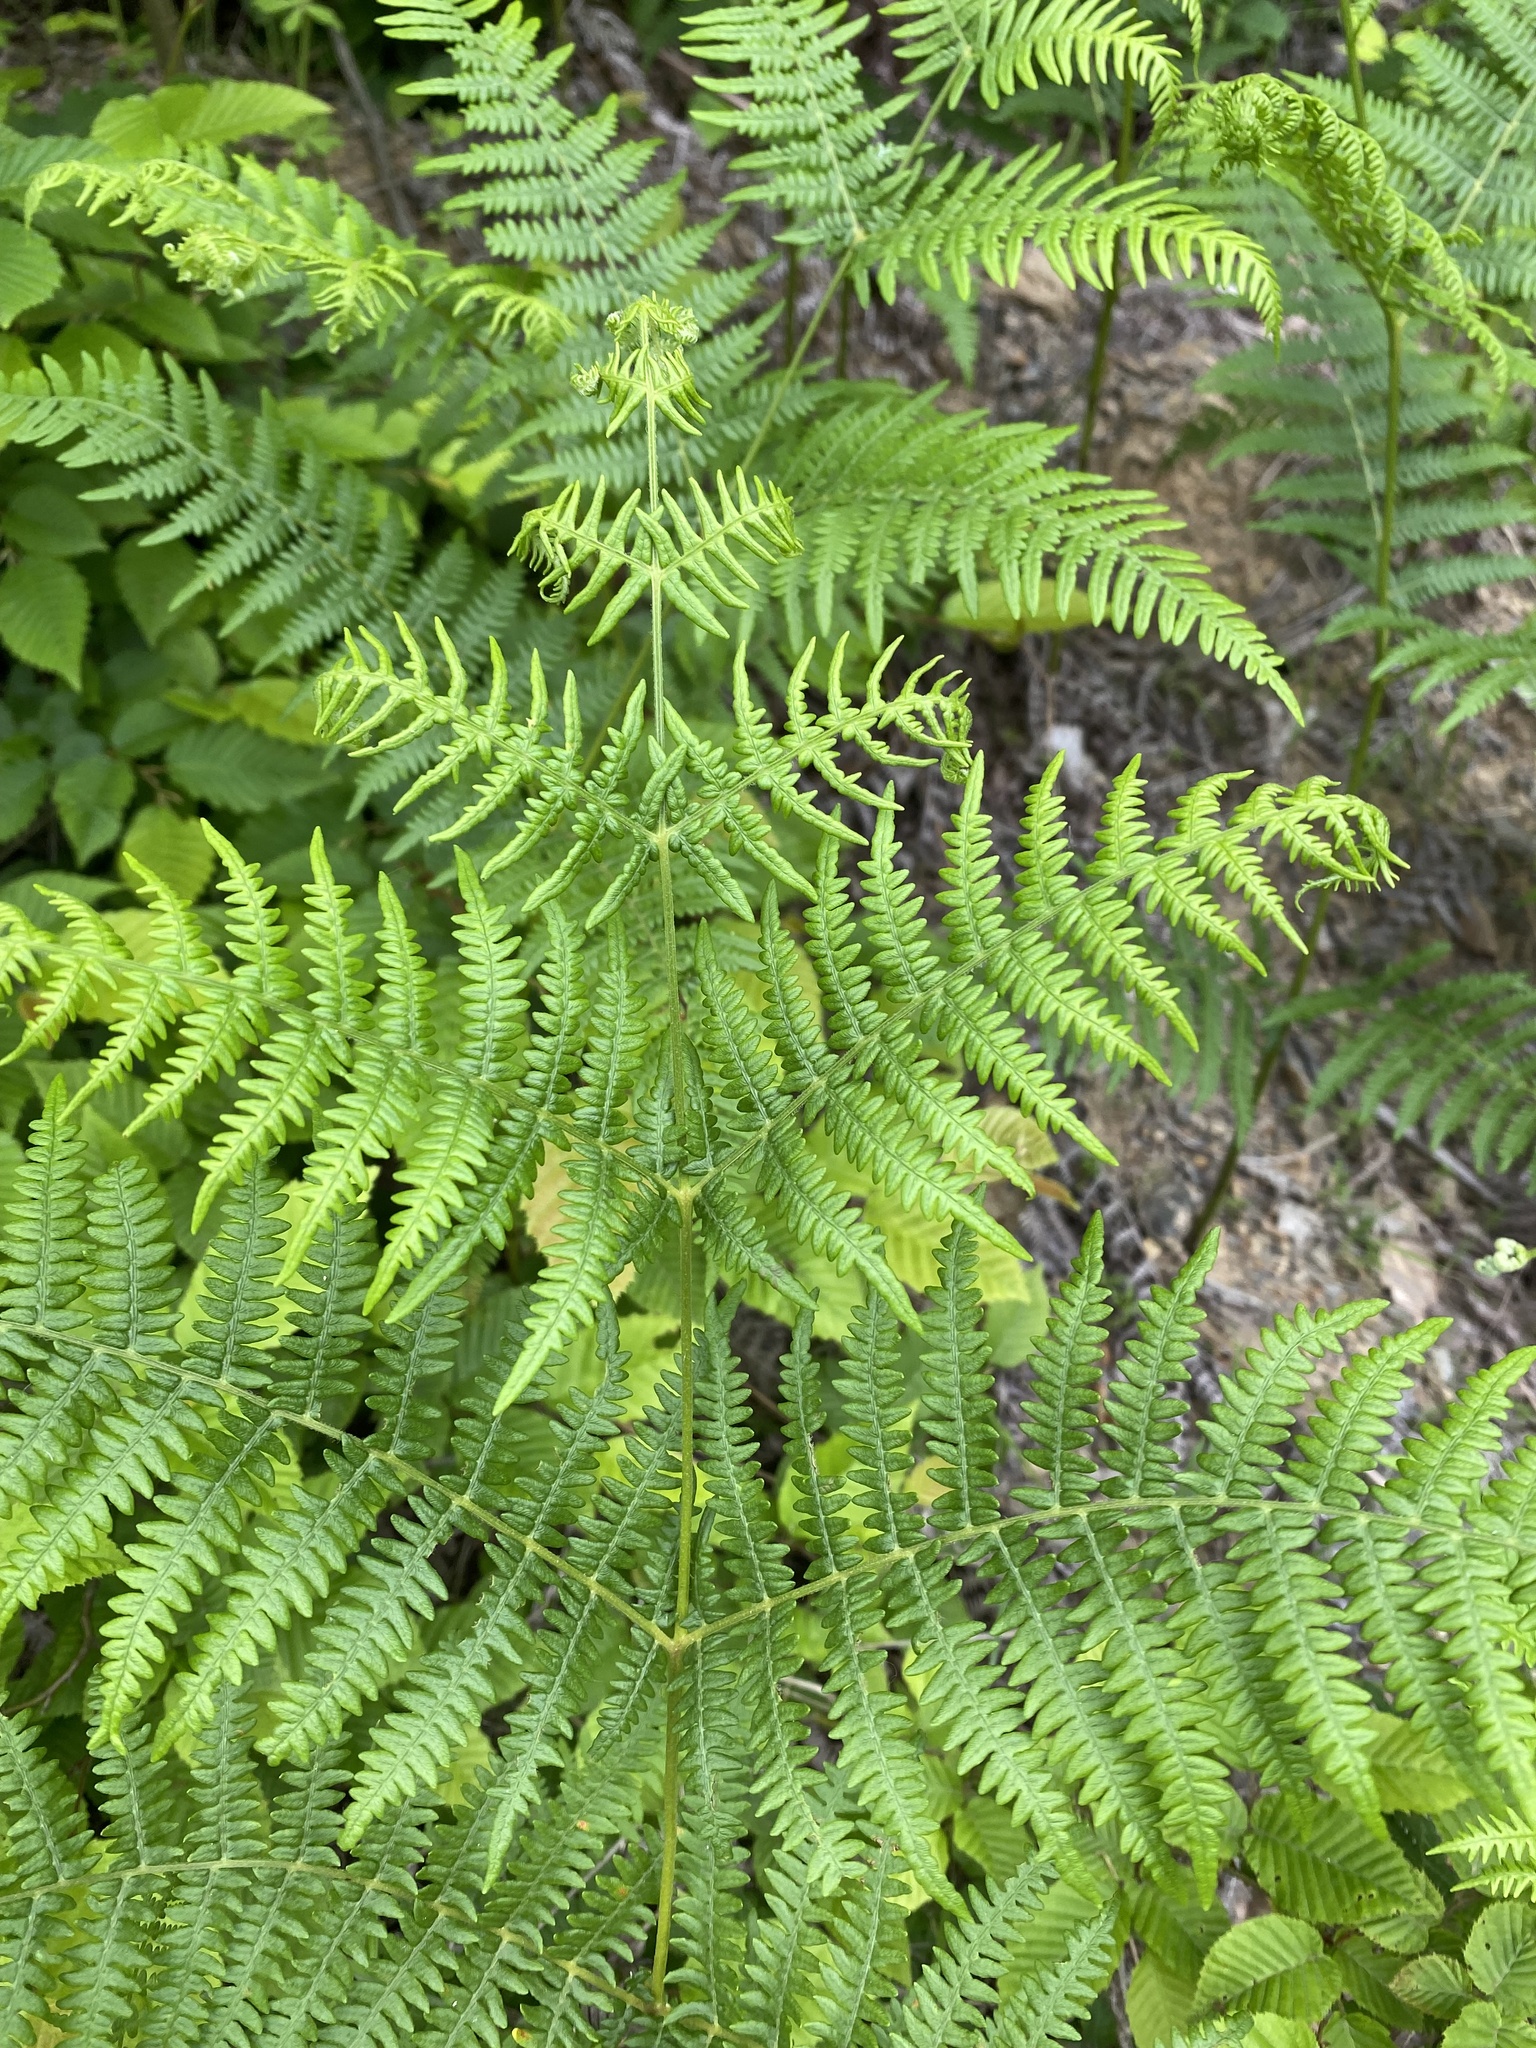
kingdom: Plantae
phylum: Tracheophyta
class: Polypodiopsida
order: Polypodiales
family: Dennstaedtiaceae
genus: Pteridium
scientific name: Pteridium tauricum
